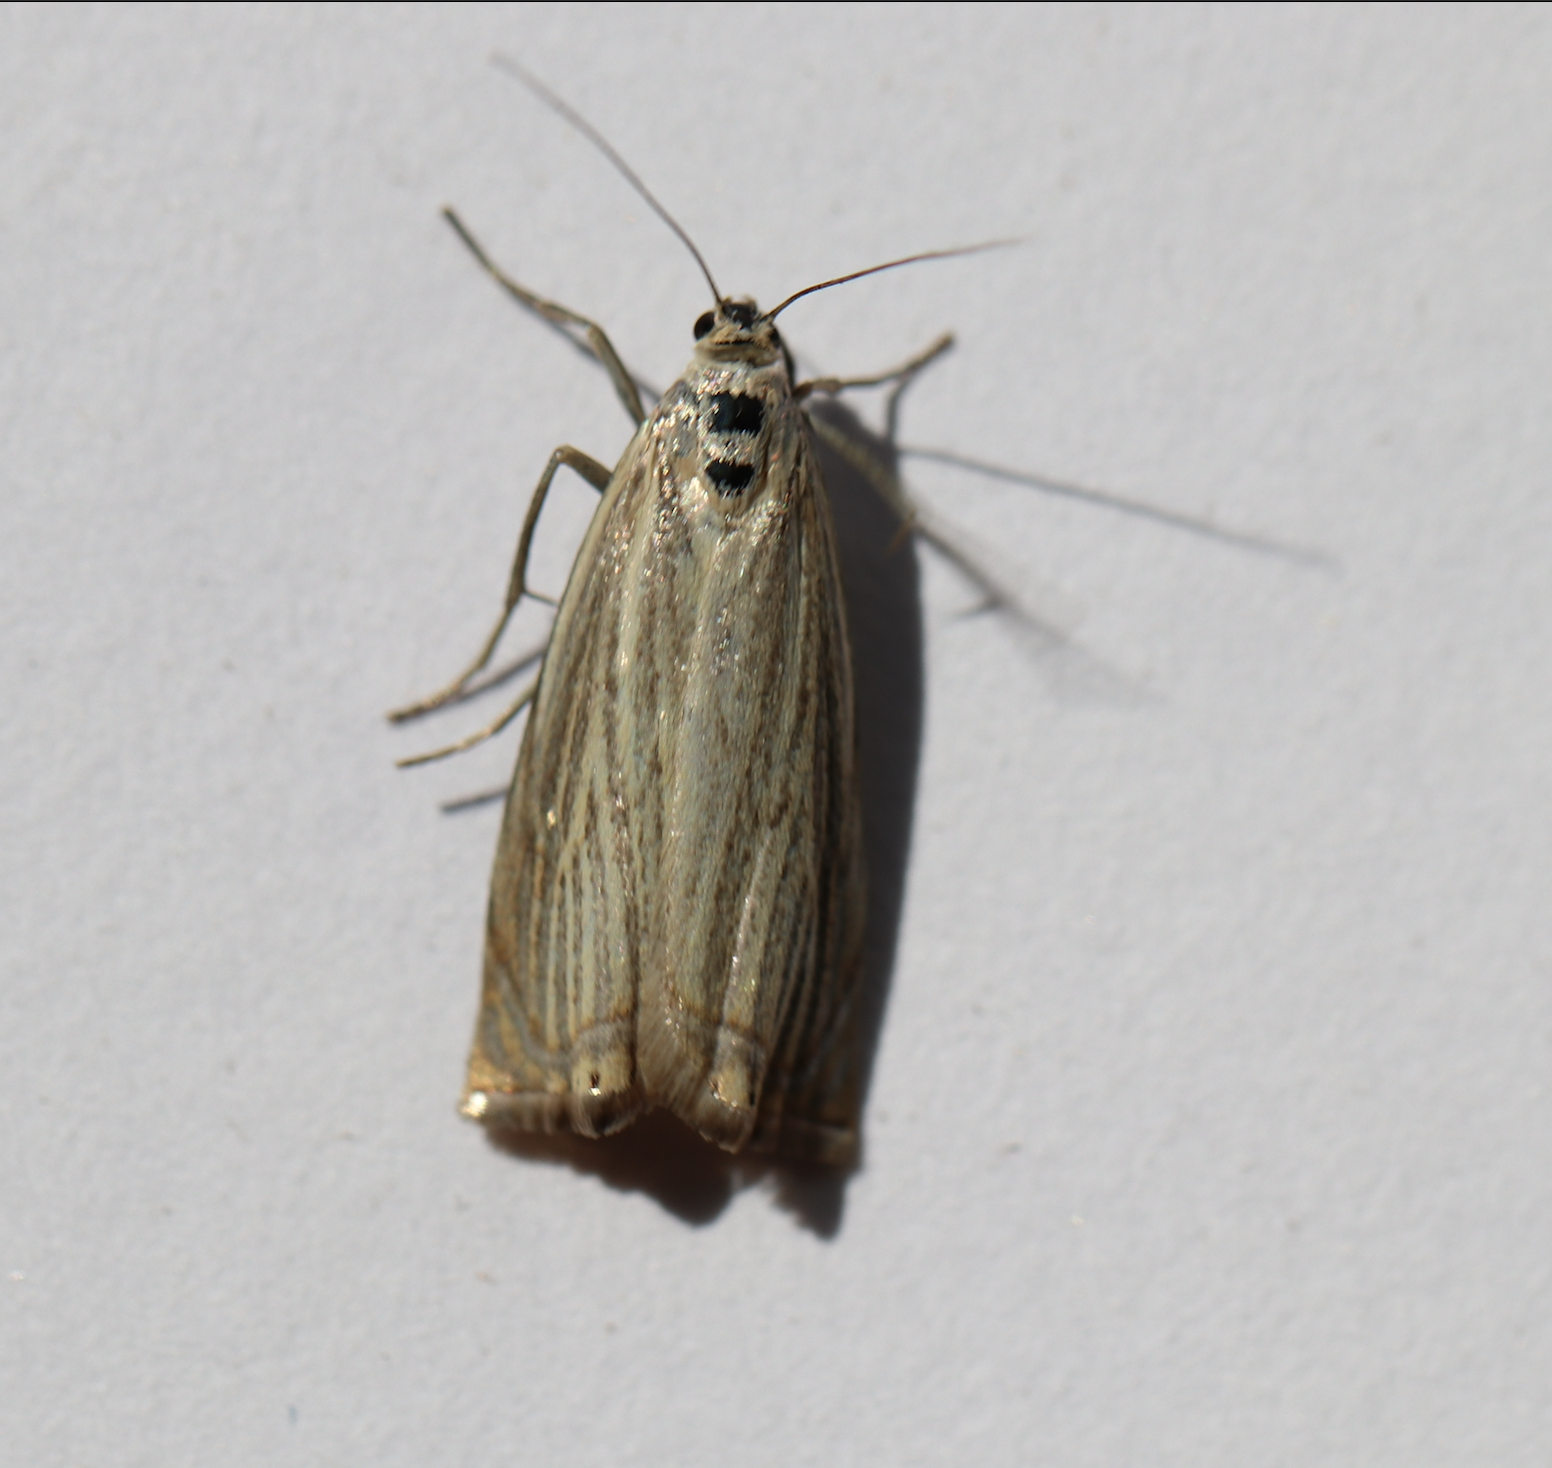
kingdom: Animalia
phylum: Arthropoda
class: Insecta
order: Lepidoptera
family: Crambidae
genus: Chrysoteuchia
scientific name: Chrysoteuchia culmella
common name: Garden grass-veneer
